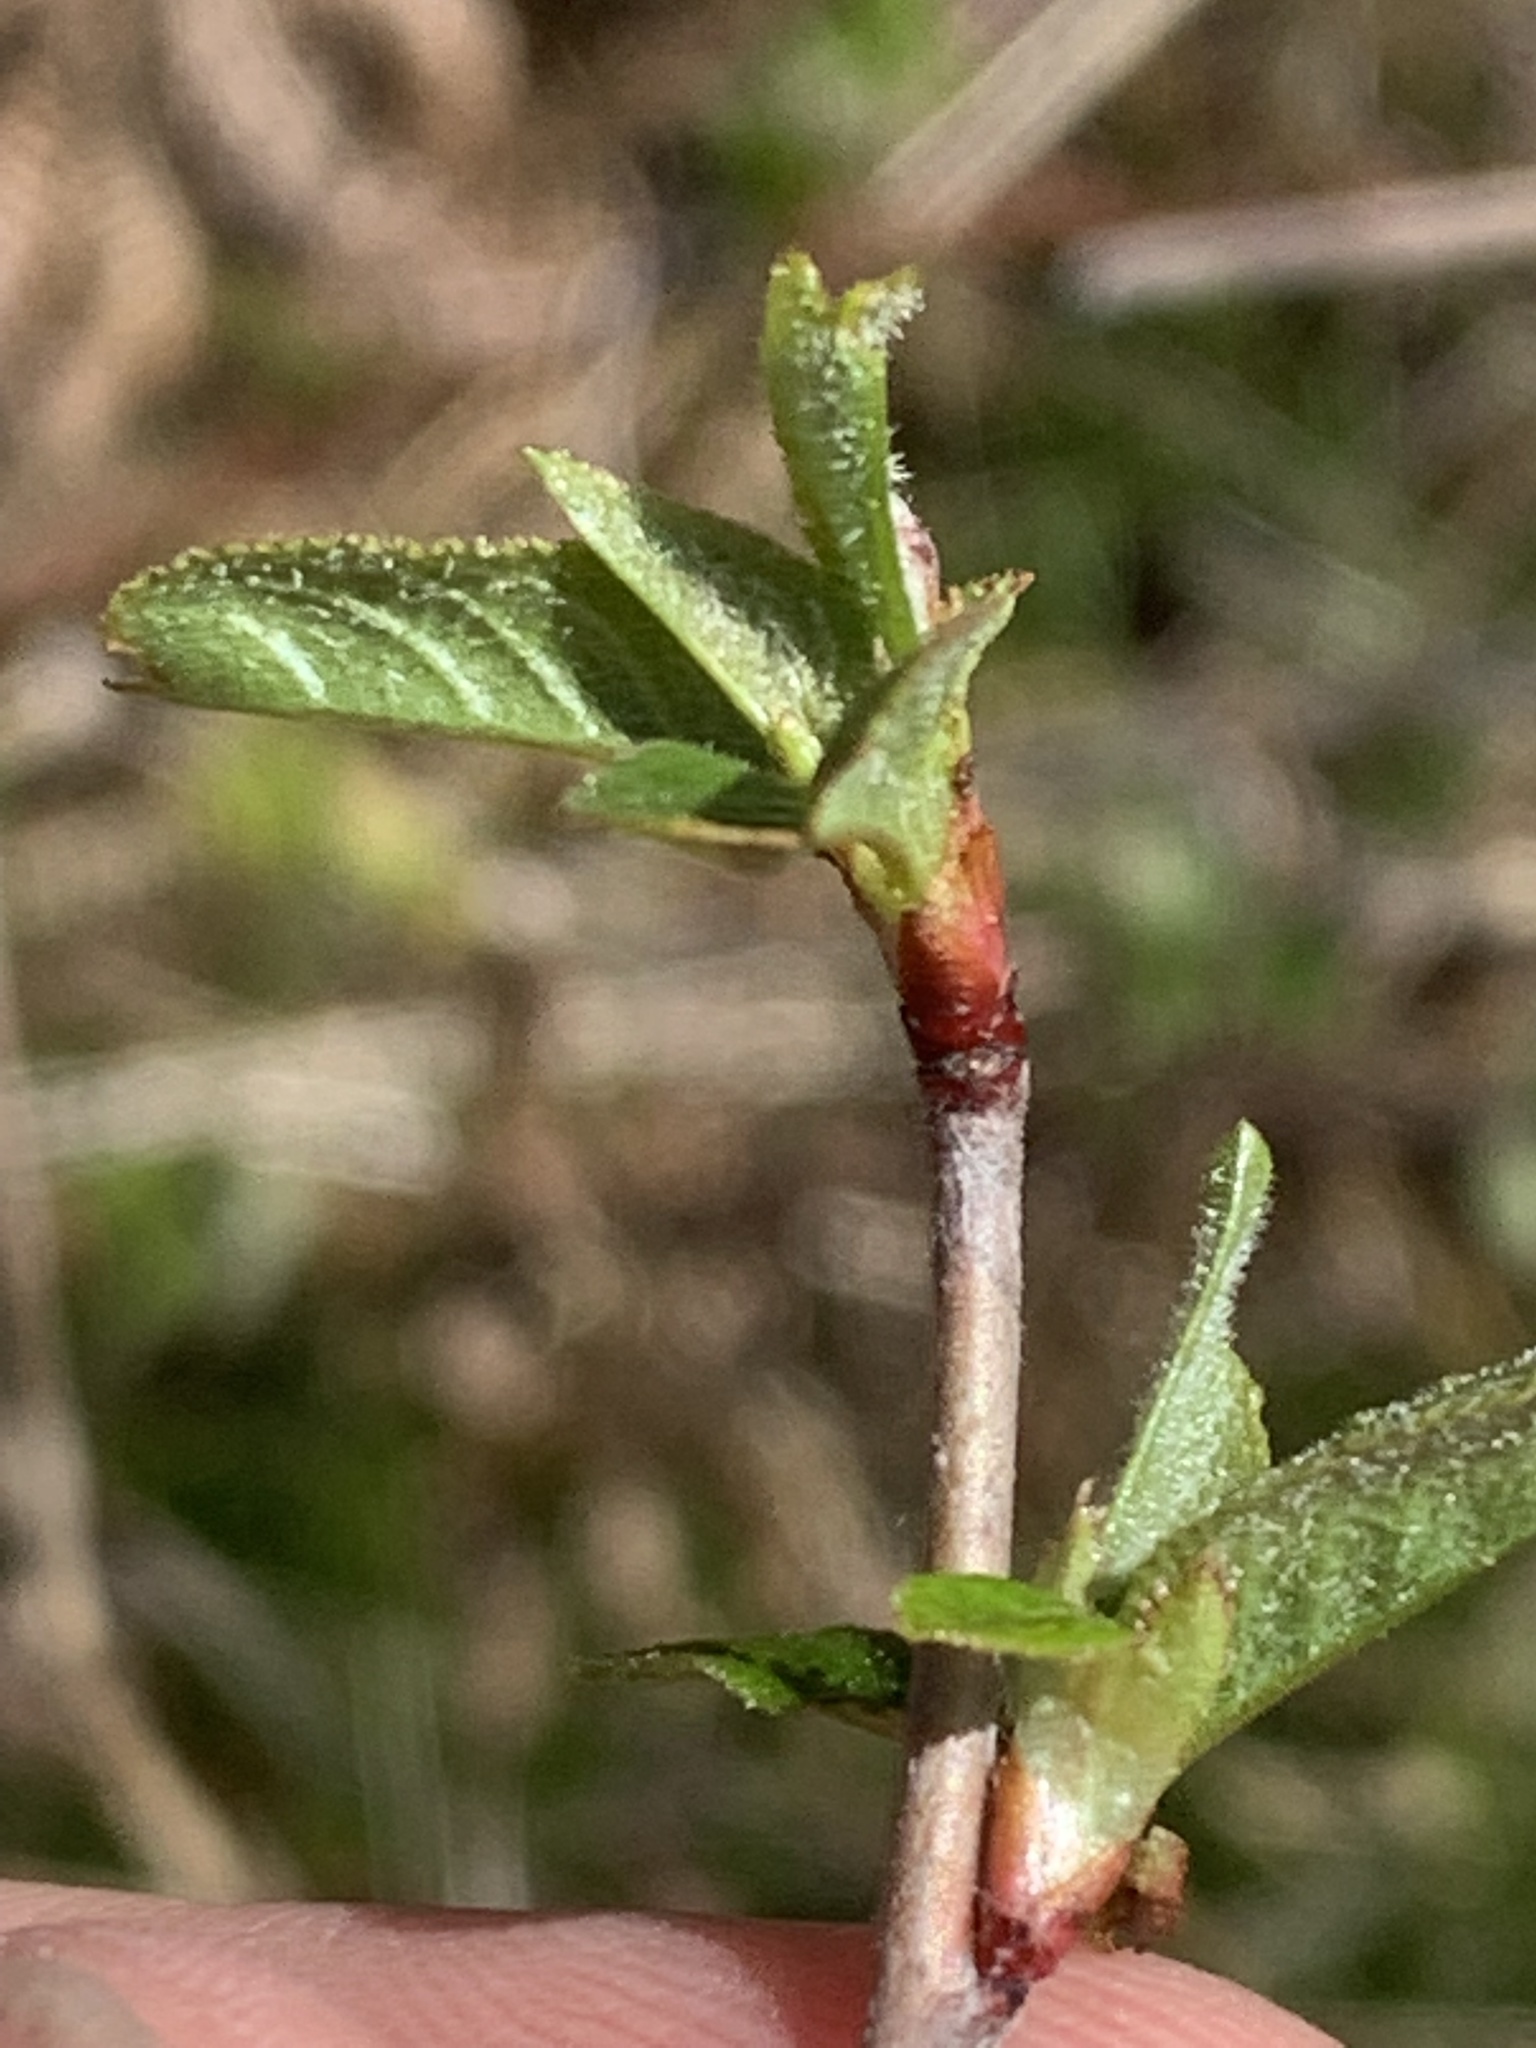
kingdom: Plantae
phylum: Tracheophyta
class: Magnoliopsida
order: Rosales
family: Rosaceae
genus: Prunus
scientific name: Prunus emarginata
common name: Bitter cherry
